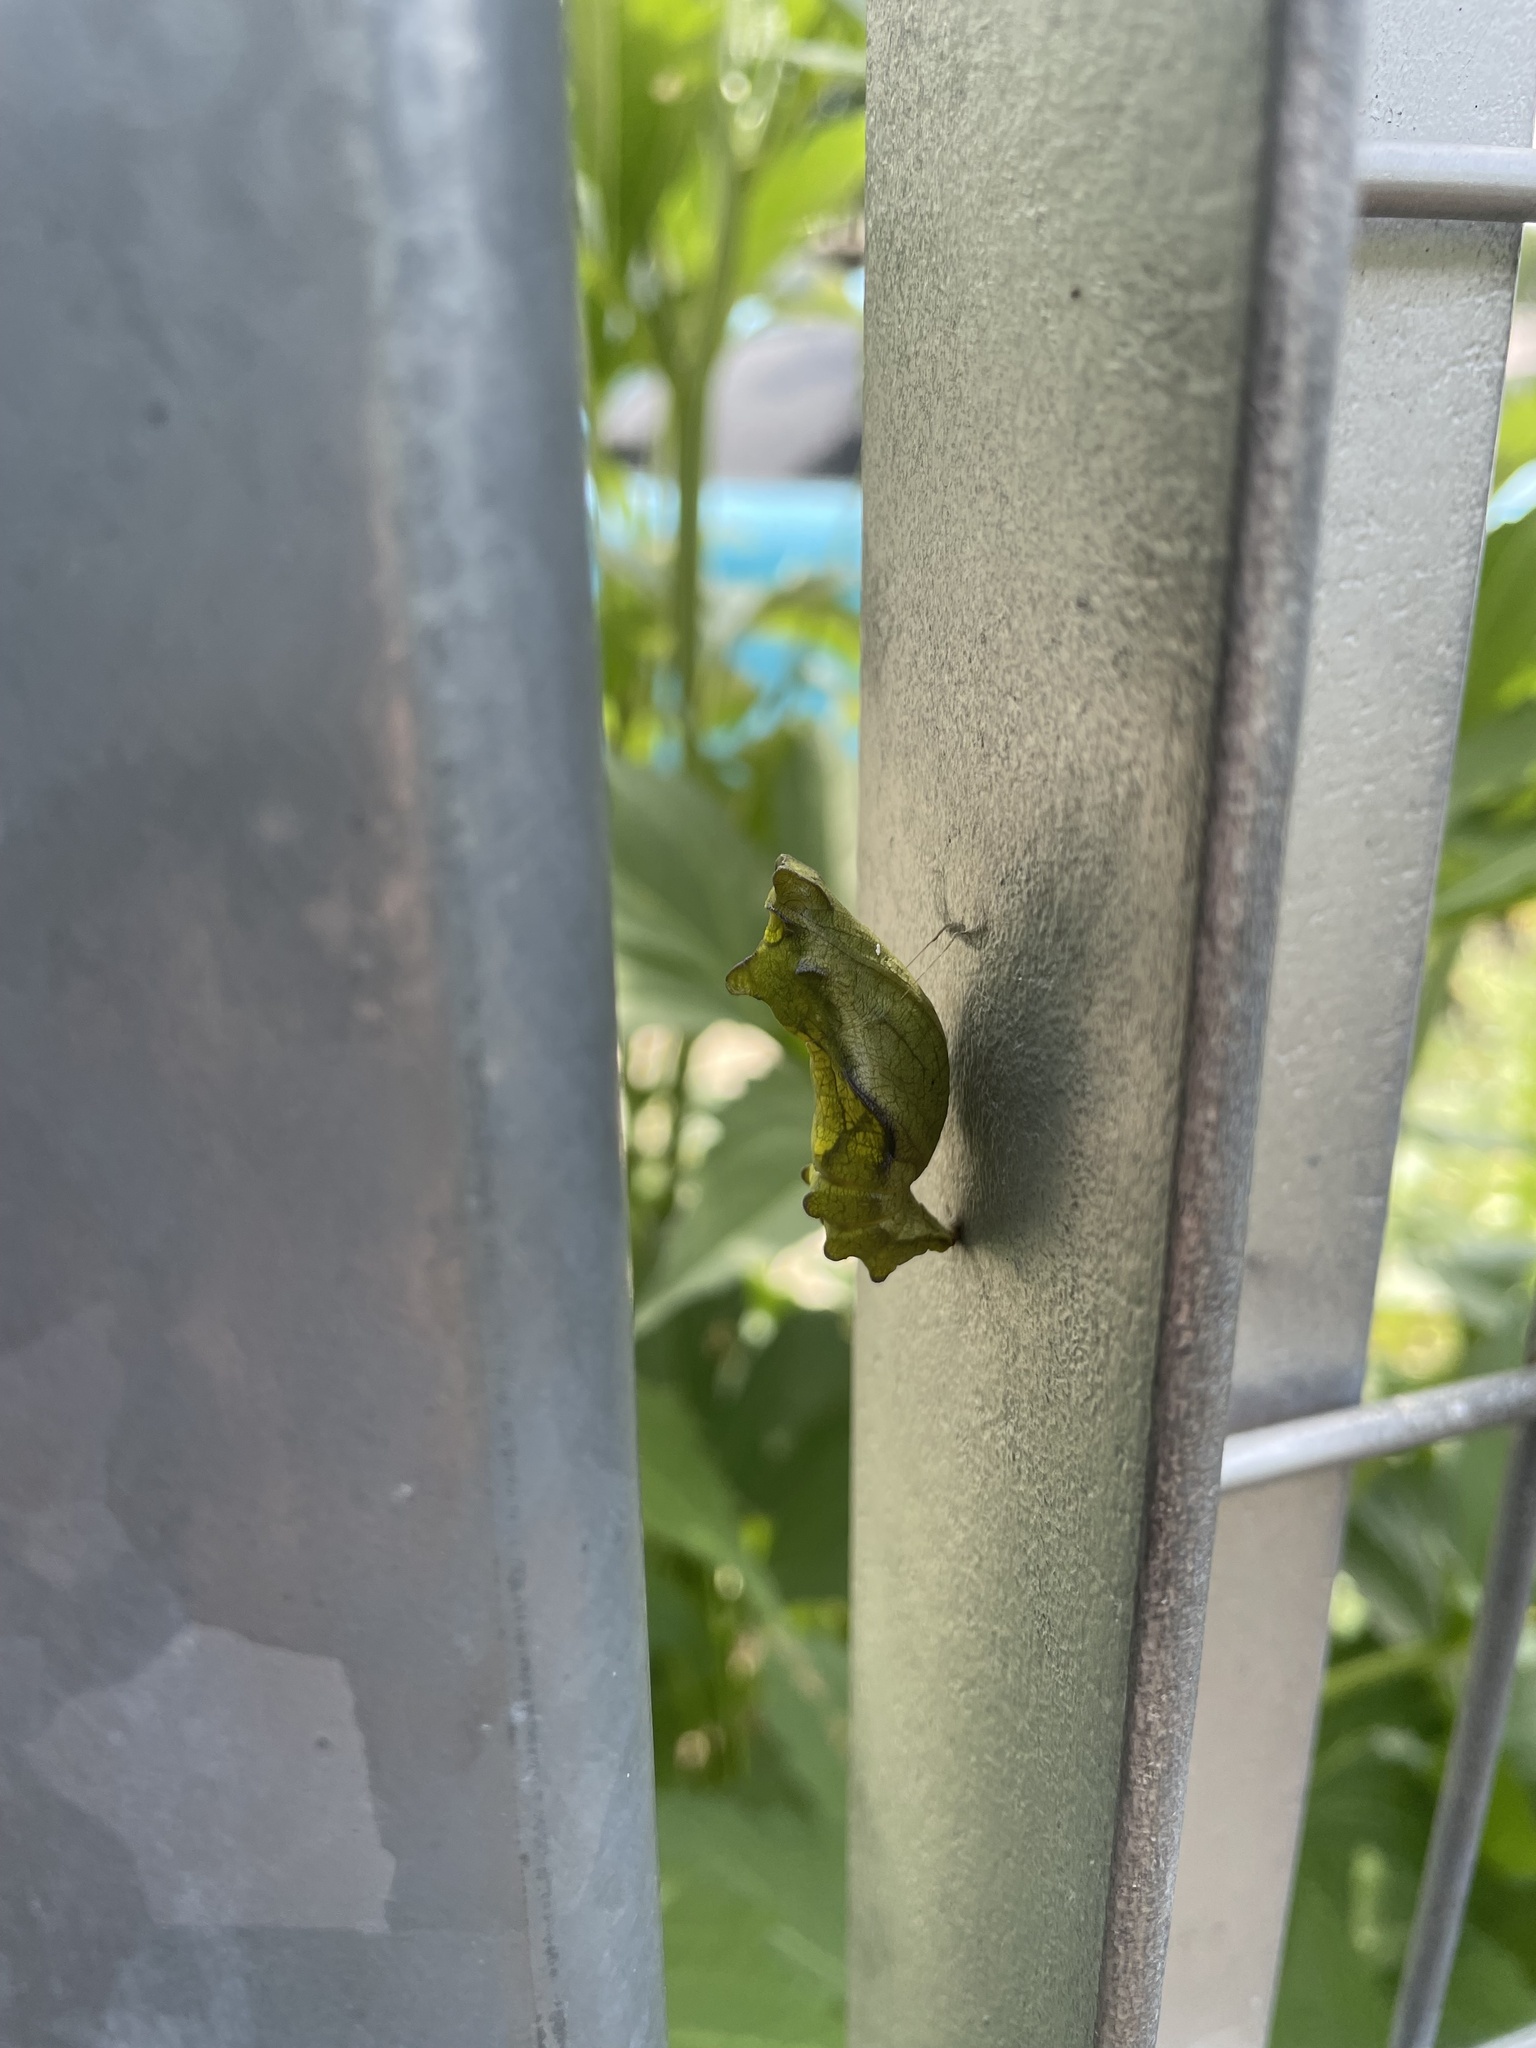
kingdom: Animalia
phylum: Arthropoda
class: Insecta
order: Lepidoptera
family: Papilionidae
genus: Battus
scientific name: Battus philenor
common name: Pipevine swallowtail
